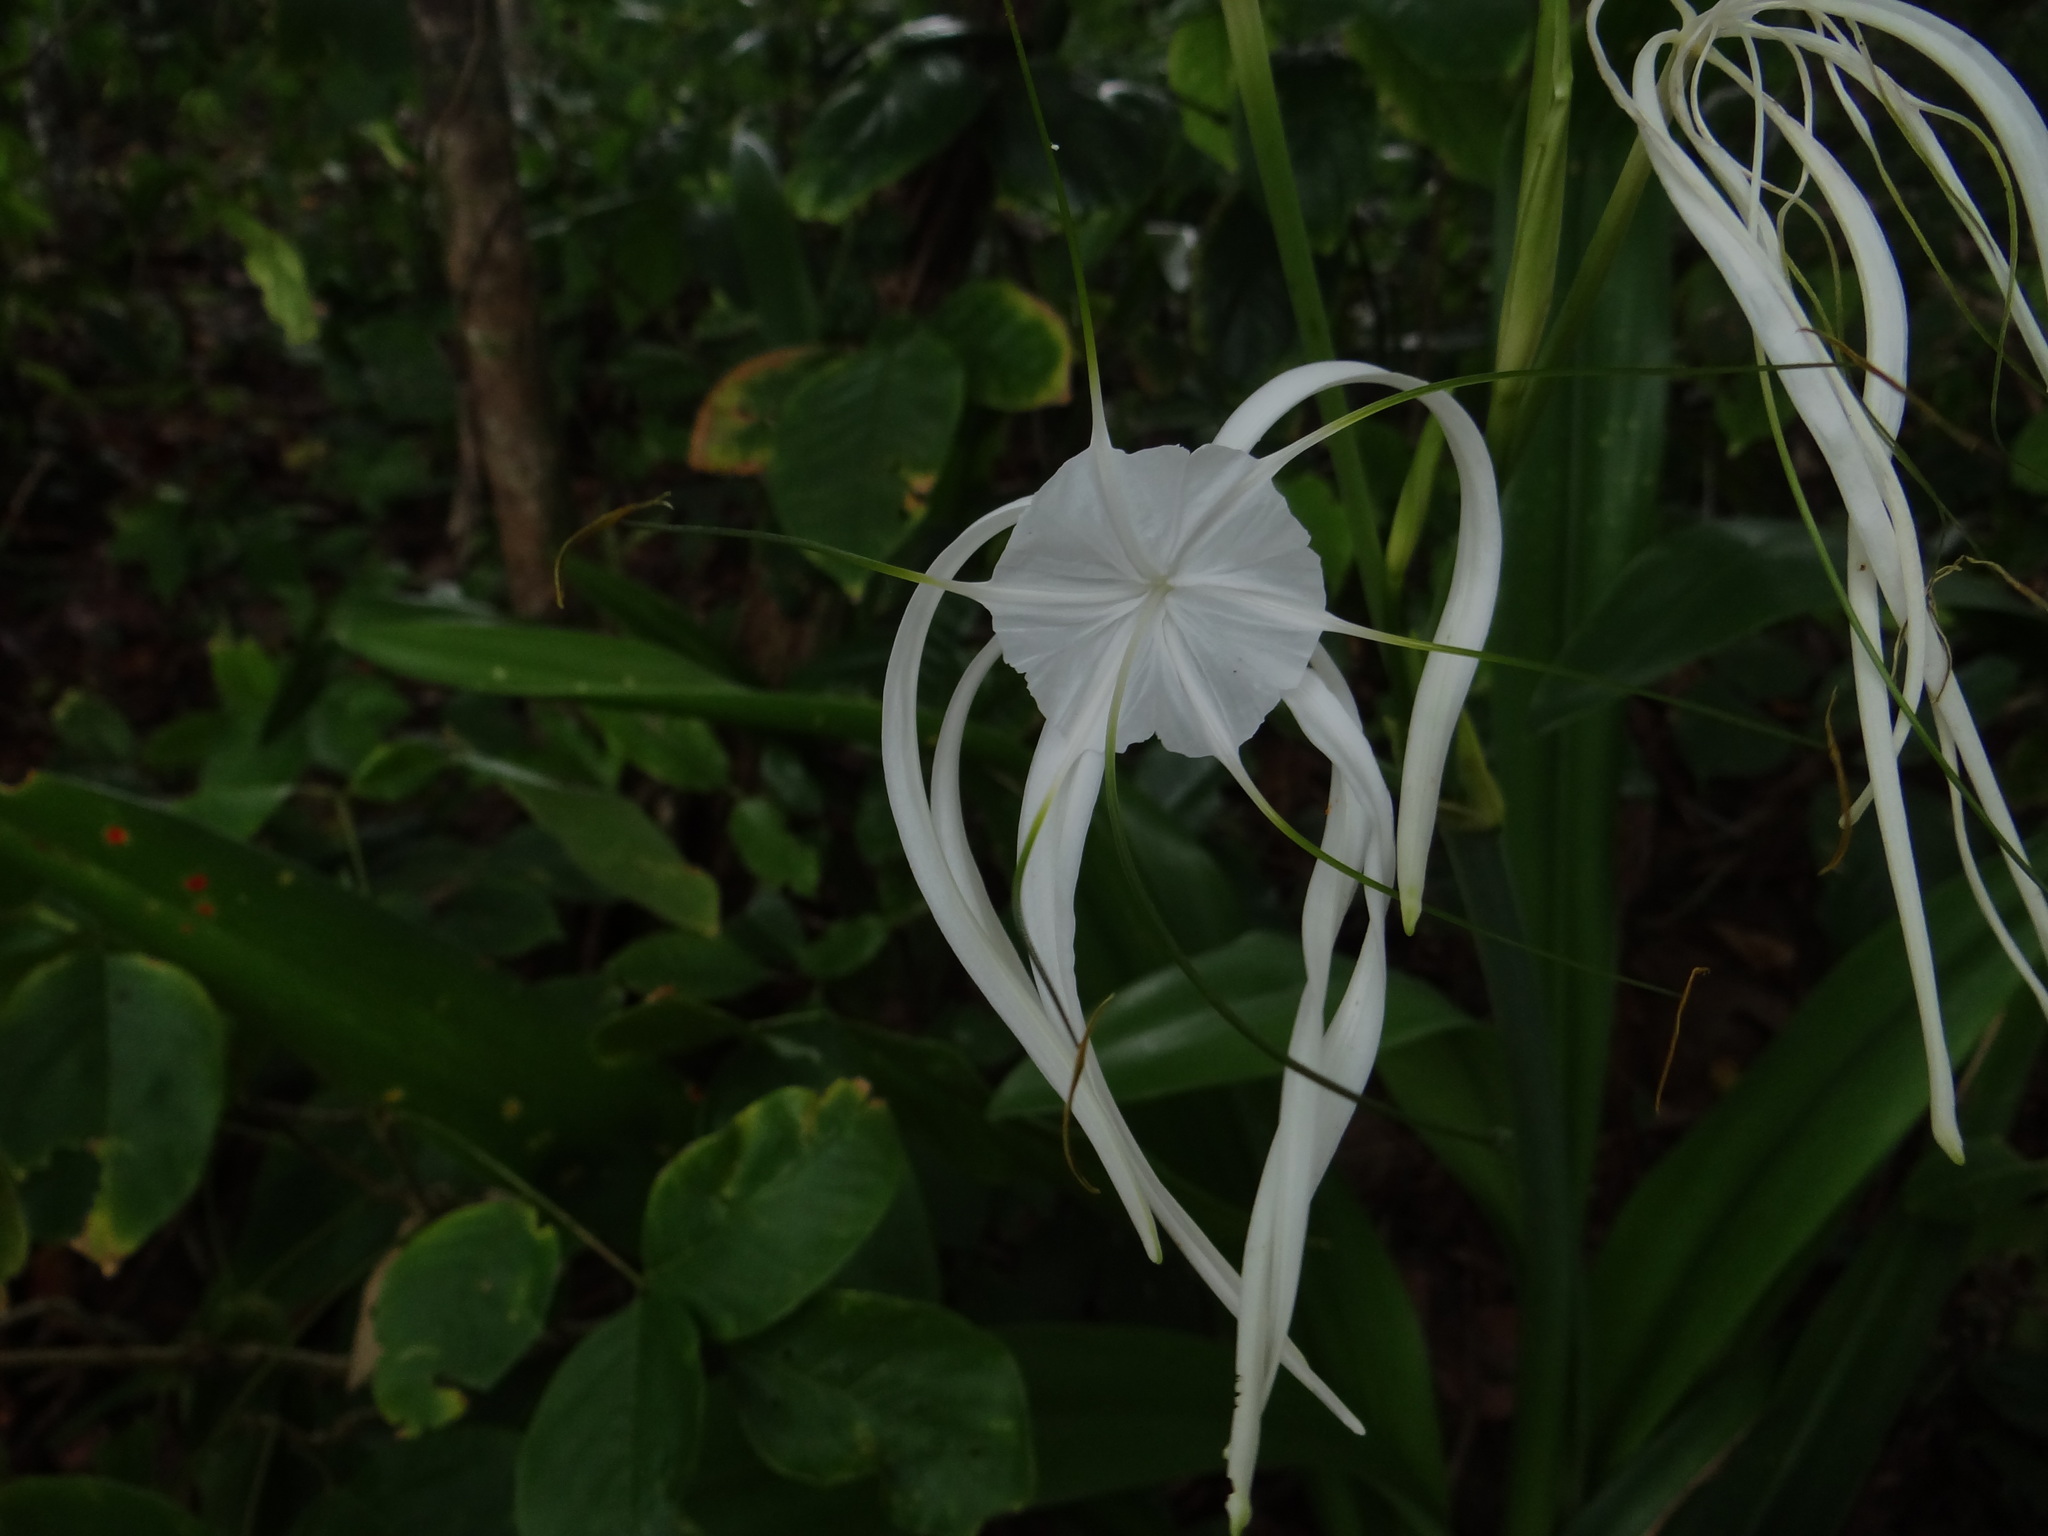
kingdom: Plantae
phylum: Tracheophyta
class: Liliopsida
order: Asparagales
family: Amaryllidaceae
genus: Hymenocallis
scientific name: Hymenocallis littoralis
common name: Beach spiderlily
